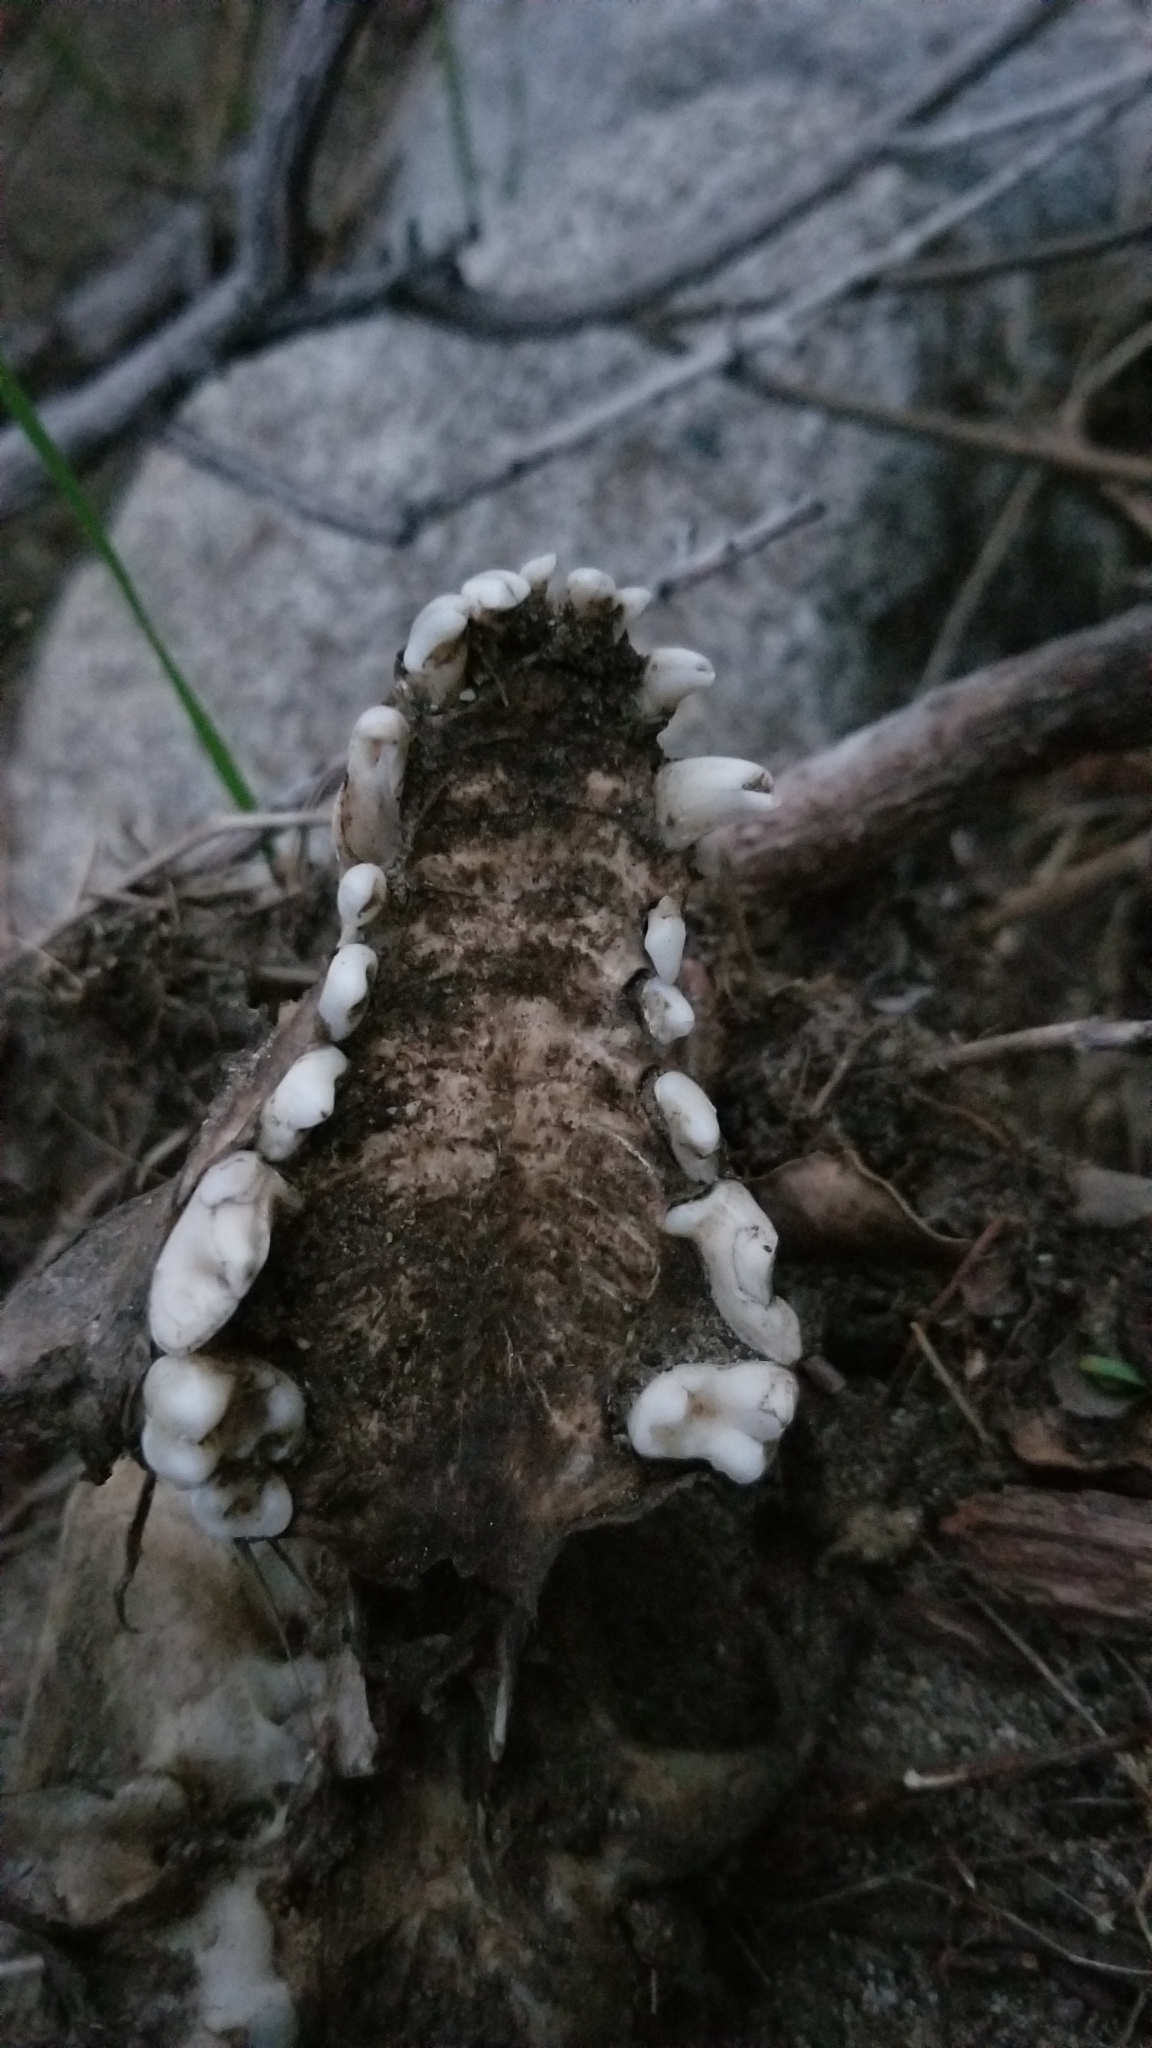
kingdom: Animalia
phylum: Chordata
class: Mammalia
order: Carnivora
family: Canidae
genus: Canis
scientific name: Canis lupus
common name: Gray wolf
